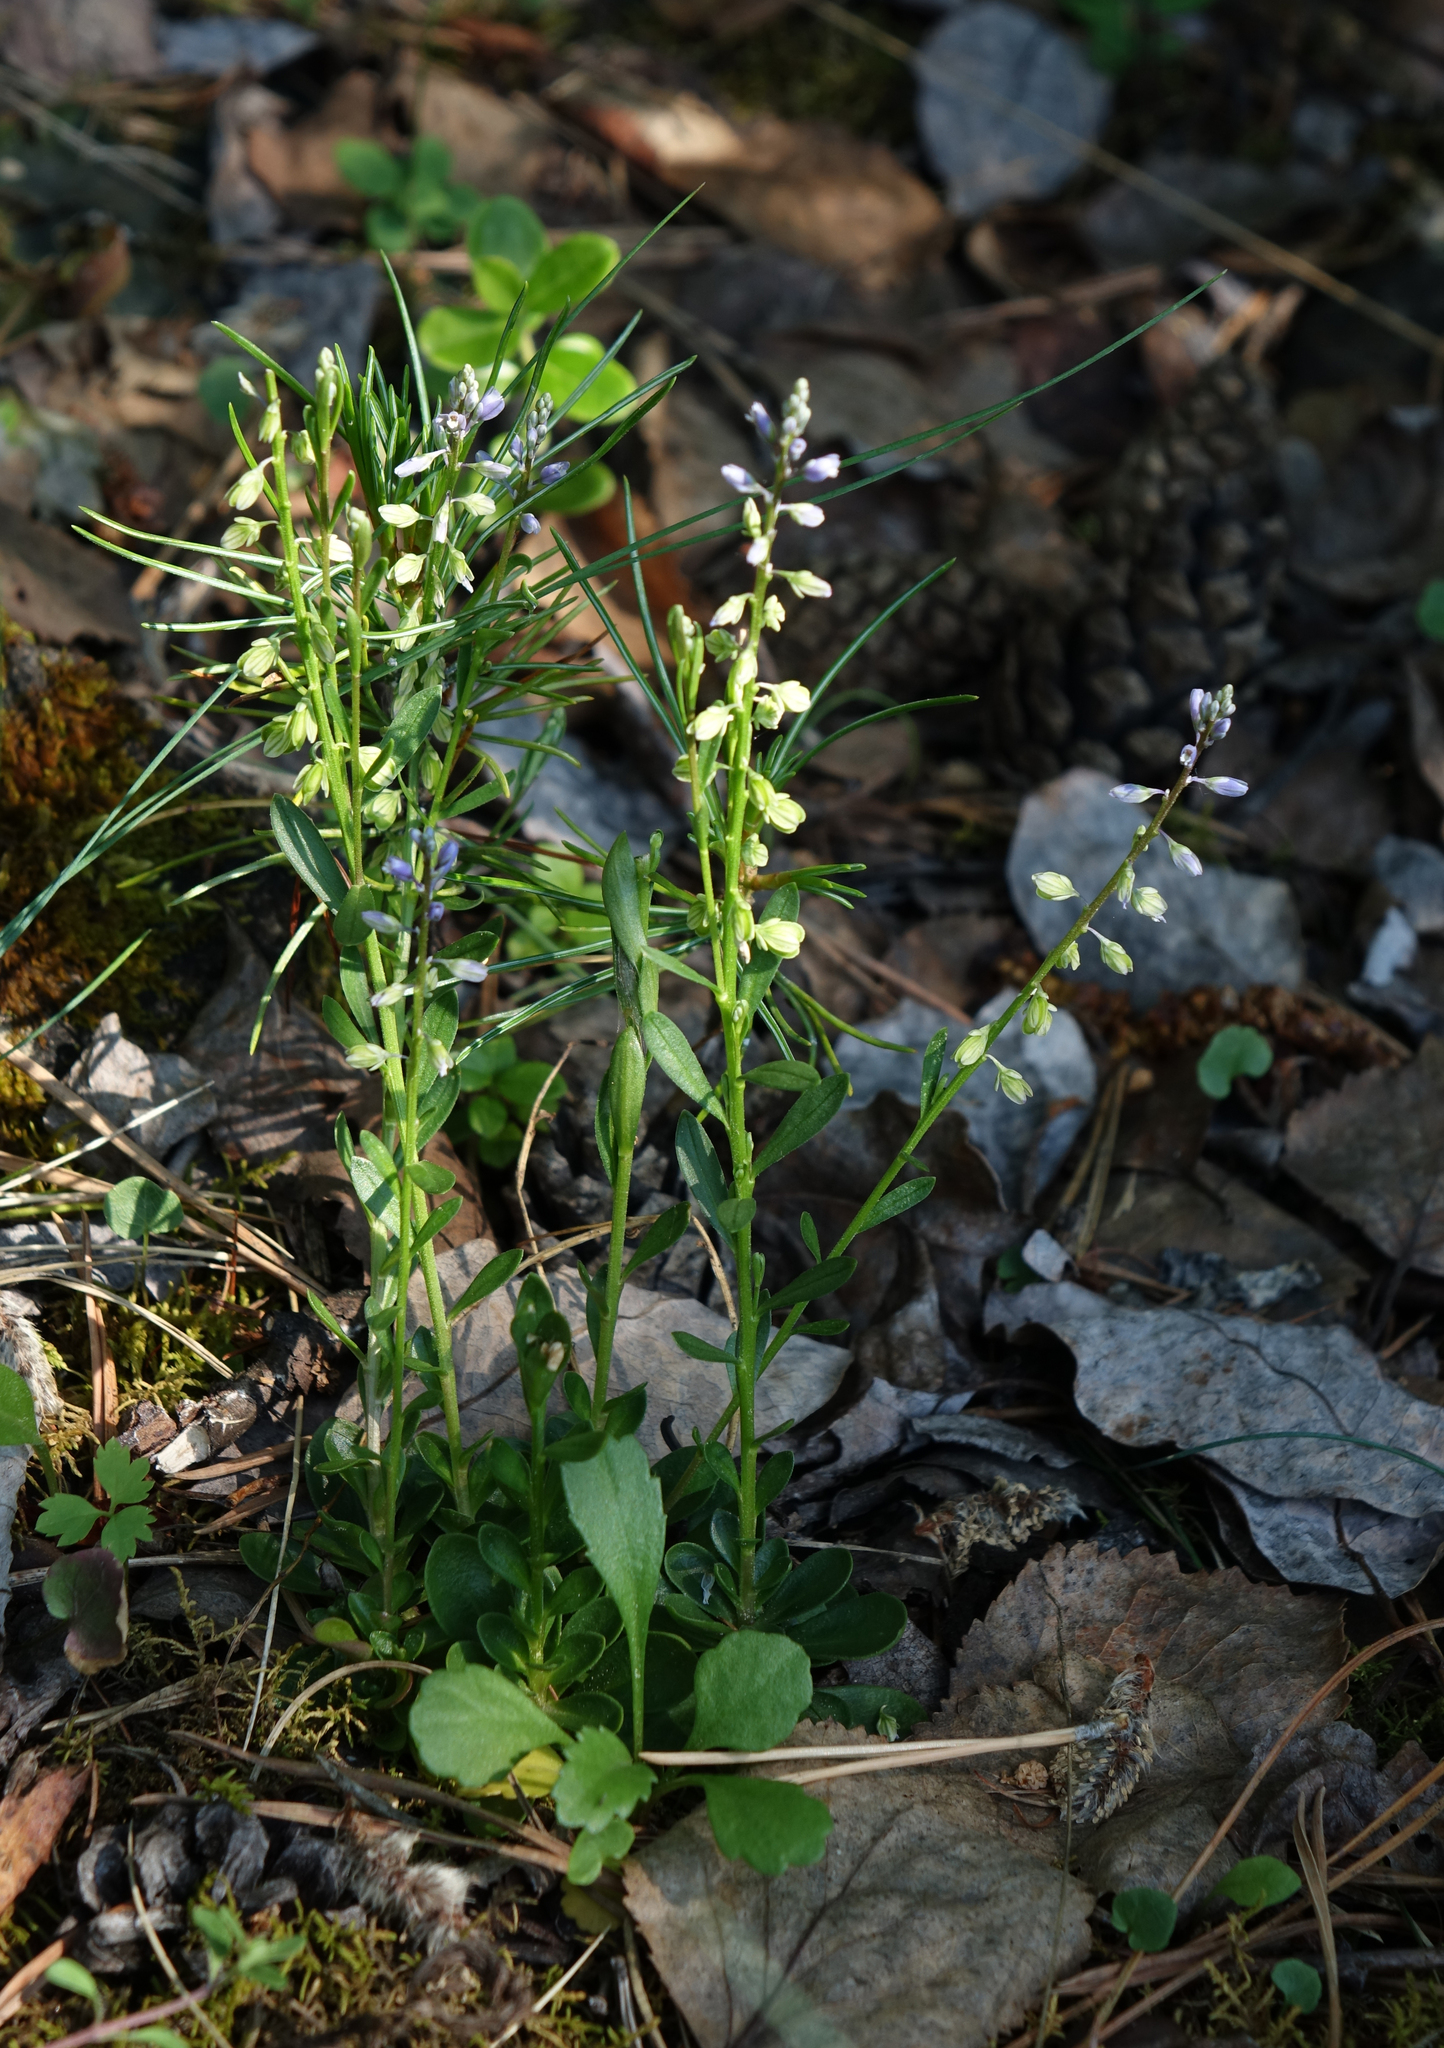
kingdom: Plantae
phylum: Tracheophyta
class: Magnoliopsida
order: Fabales
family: Polygalaceae
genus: Polygala
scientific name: Polygala amarella
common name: Dwarf milkwort
